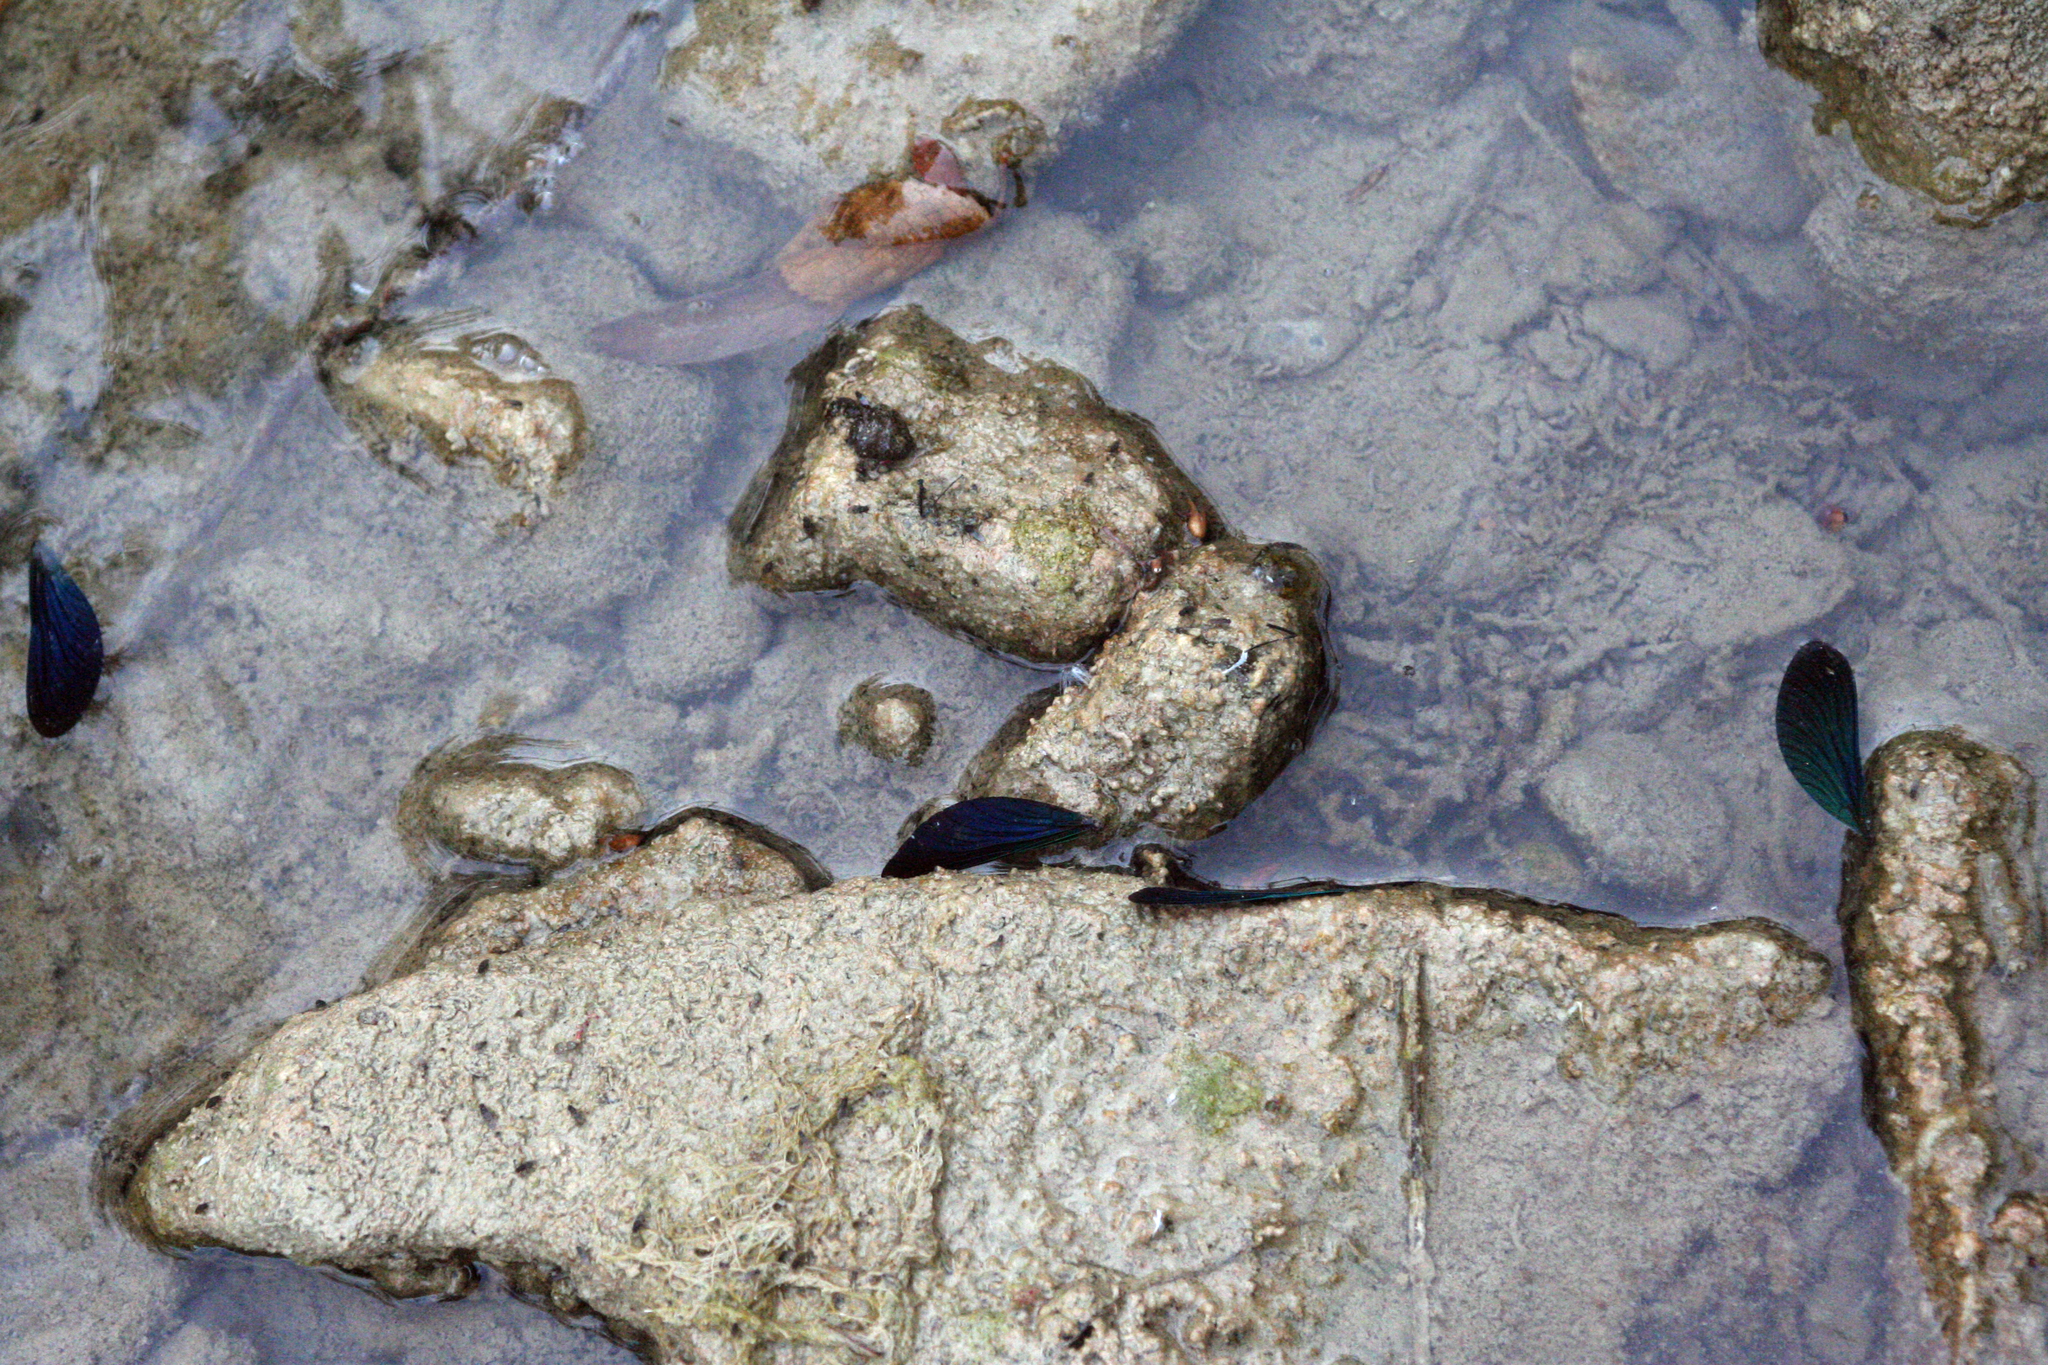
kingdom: Animalia
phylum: Arthropoda
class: Insecta
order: Odonata
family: Calopterygidae
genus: Calopteryx
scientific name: Calopteryx virgo
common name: Beautiful demoiselle
